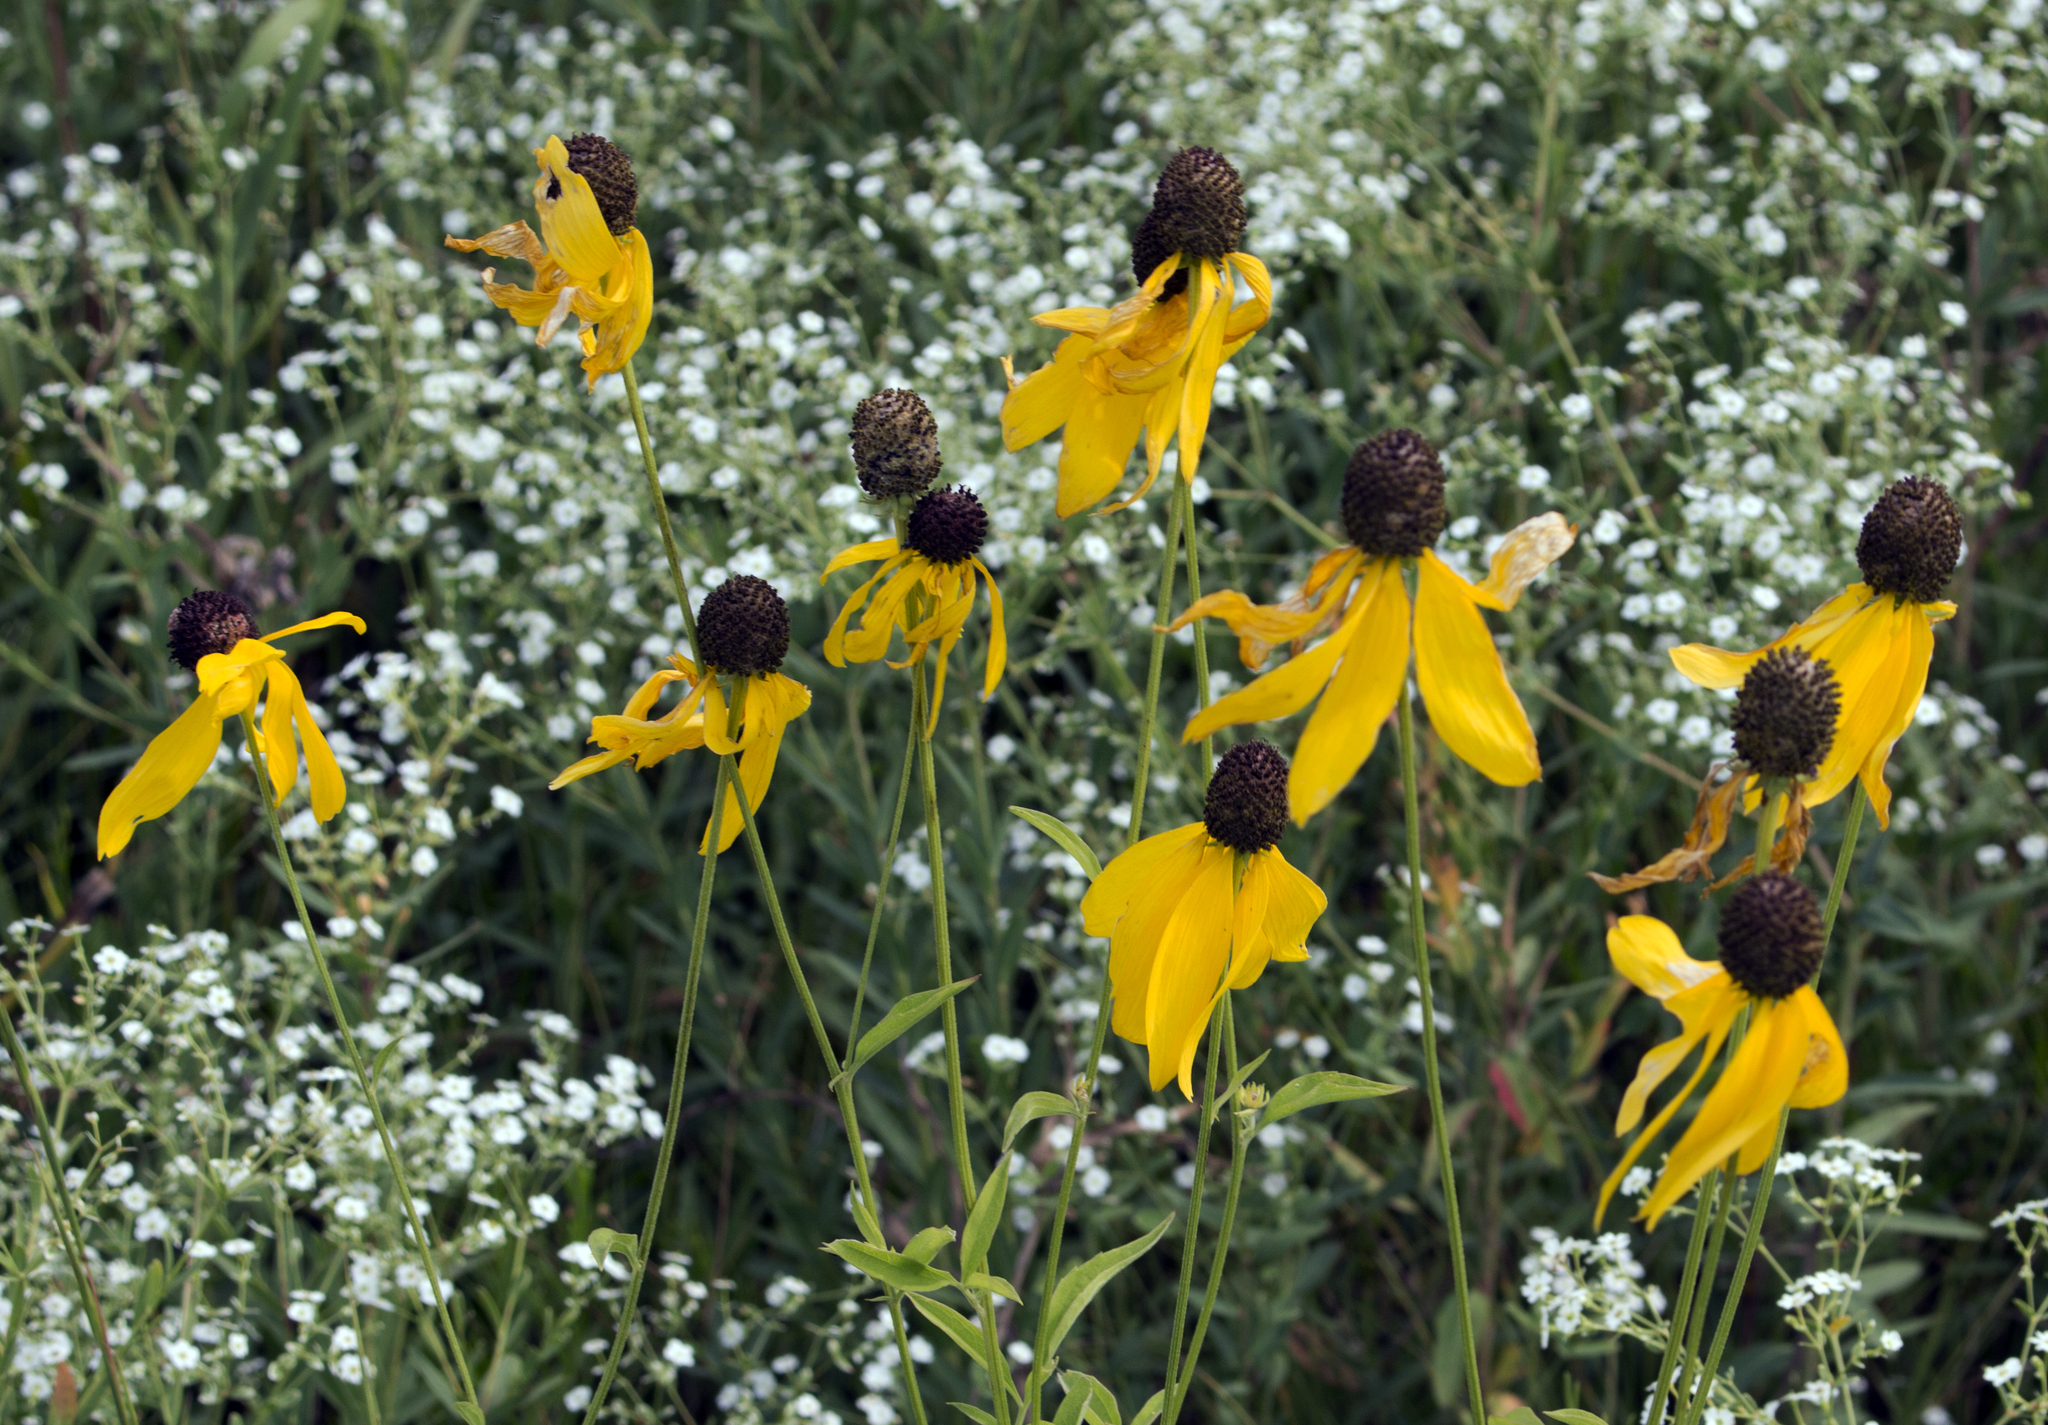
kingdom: Plantae
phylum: Tracheophyta
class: Magnoliopsida
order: Asterales
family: Asteraceae
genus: Ratibida
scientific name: Ratibida pinnata
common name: Drooping prairie-coneflower
